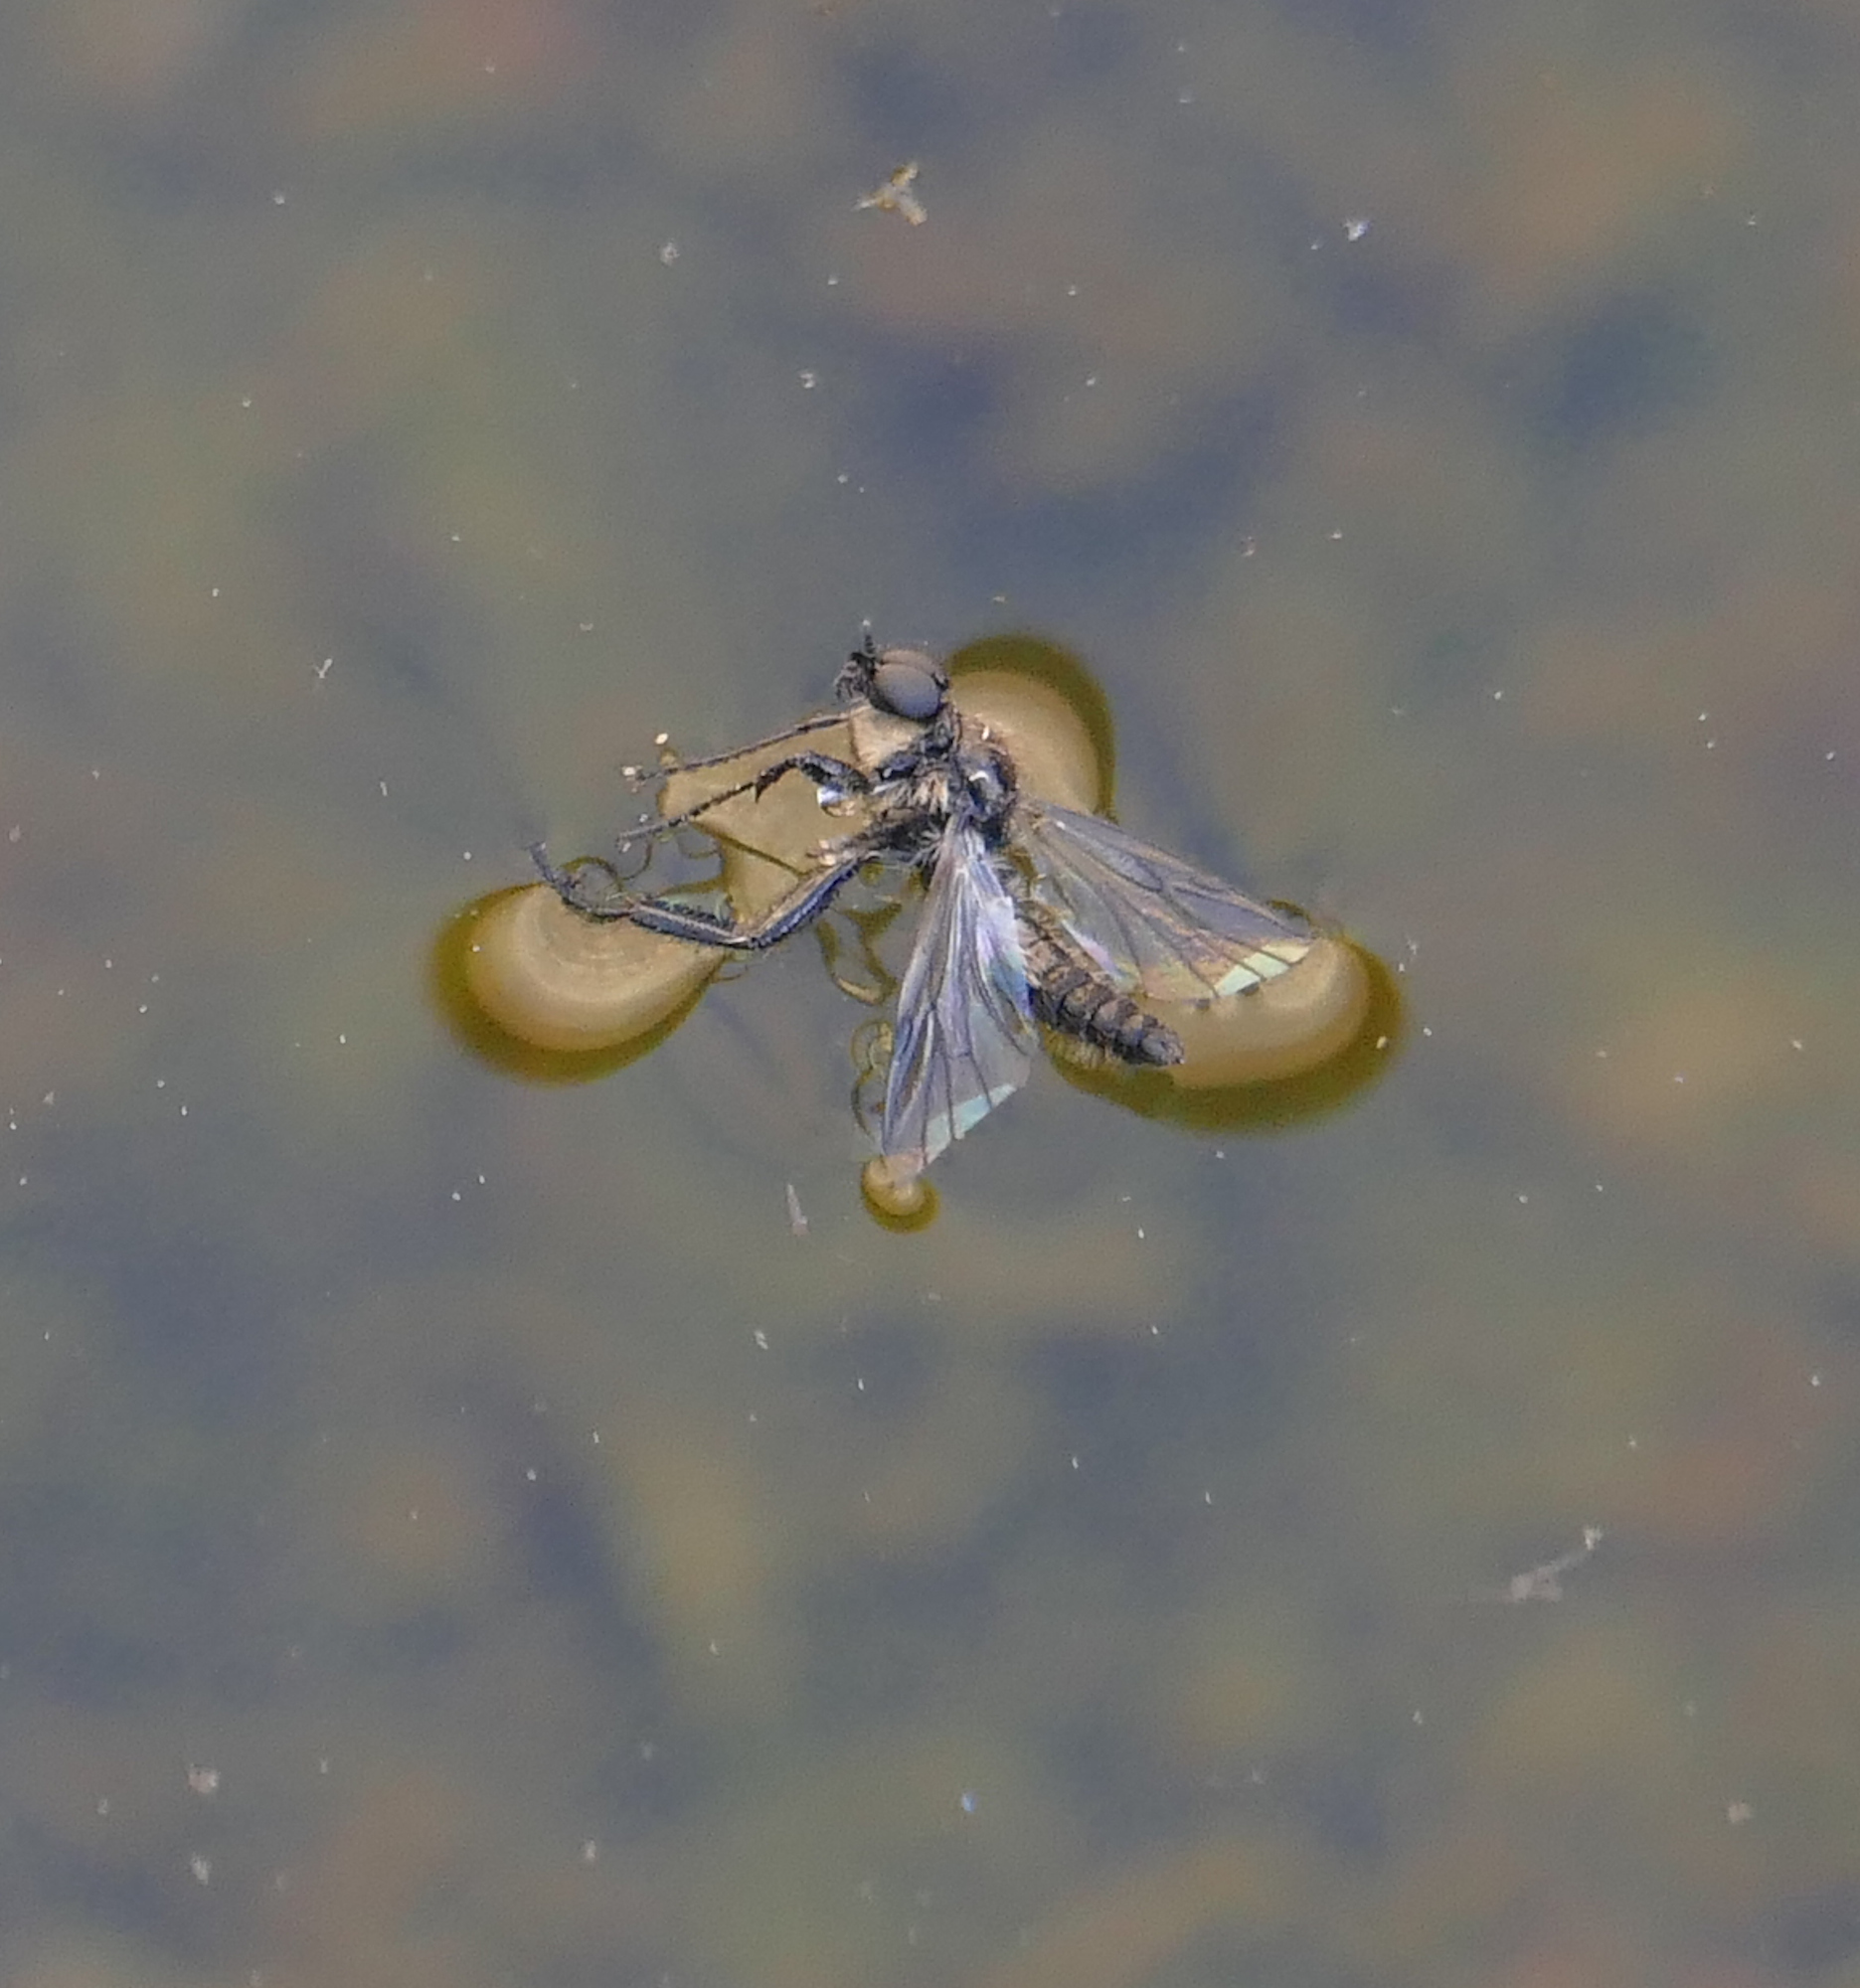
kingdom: Animalia
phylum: Arthropoda
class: Insecta
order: Diptera
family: Bibionidae
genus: Bibio
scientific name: Bibio albipennis
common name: White-winged march fly
